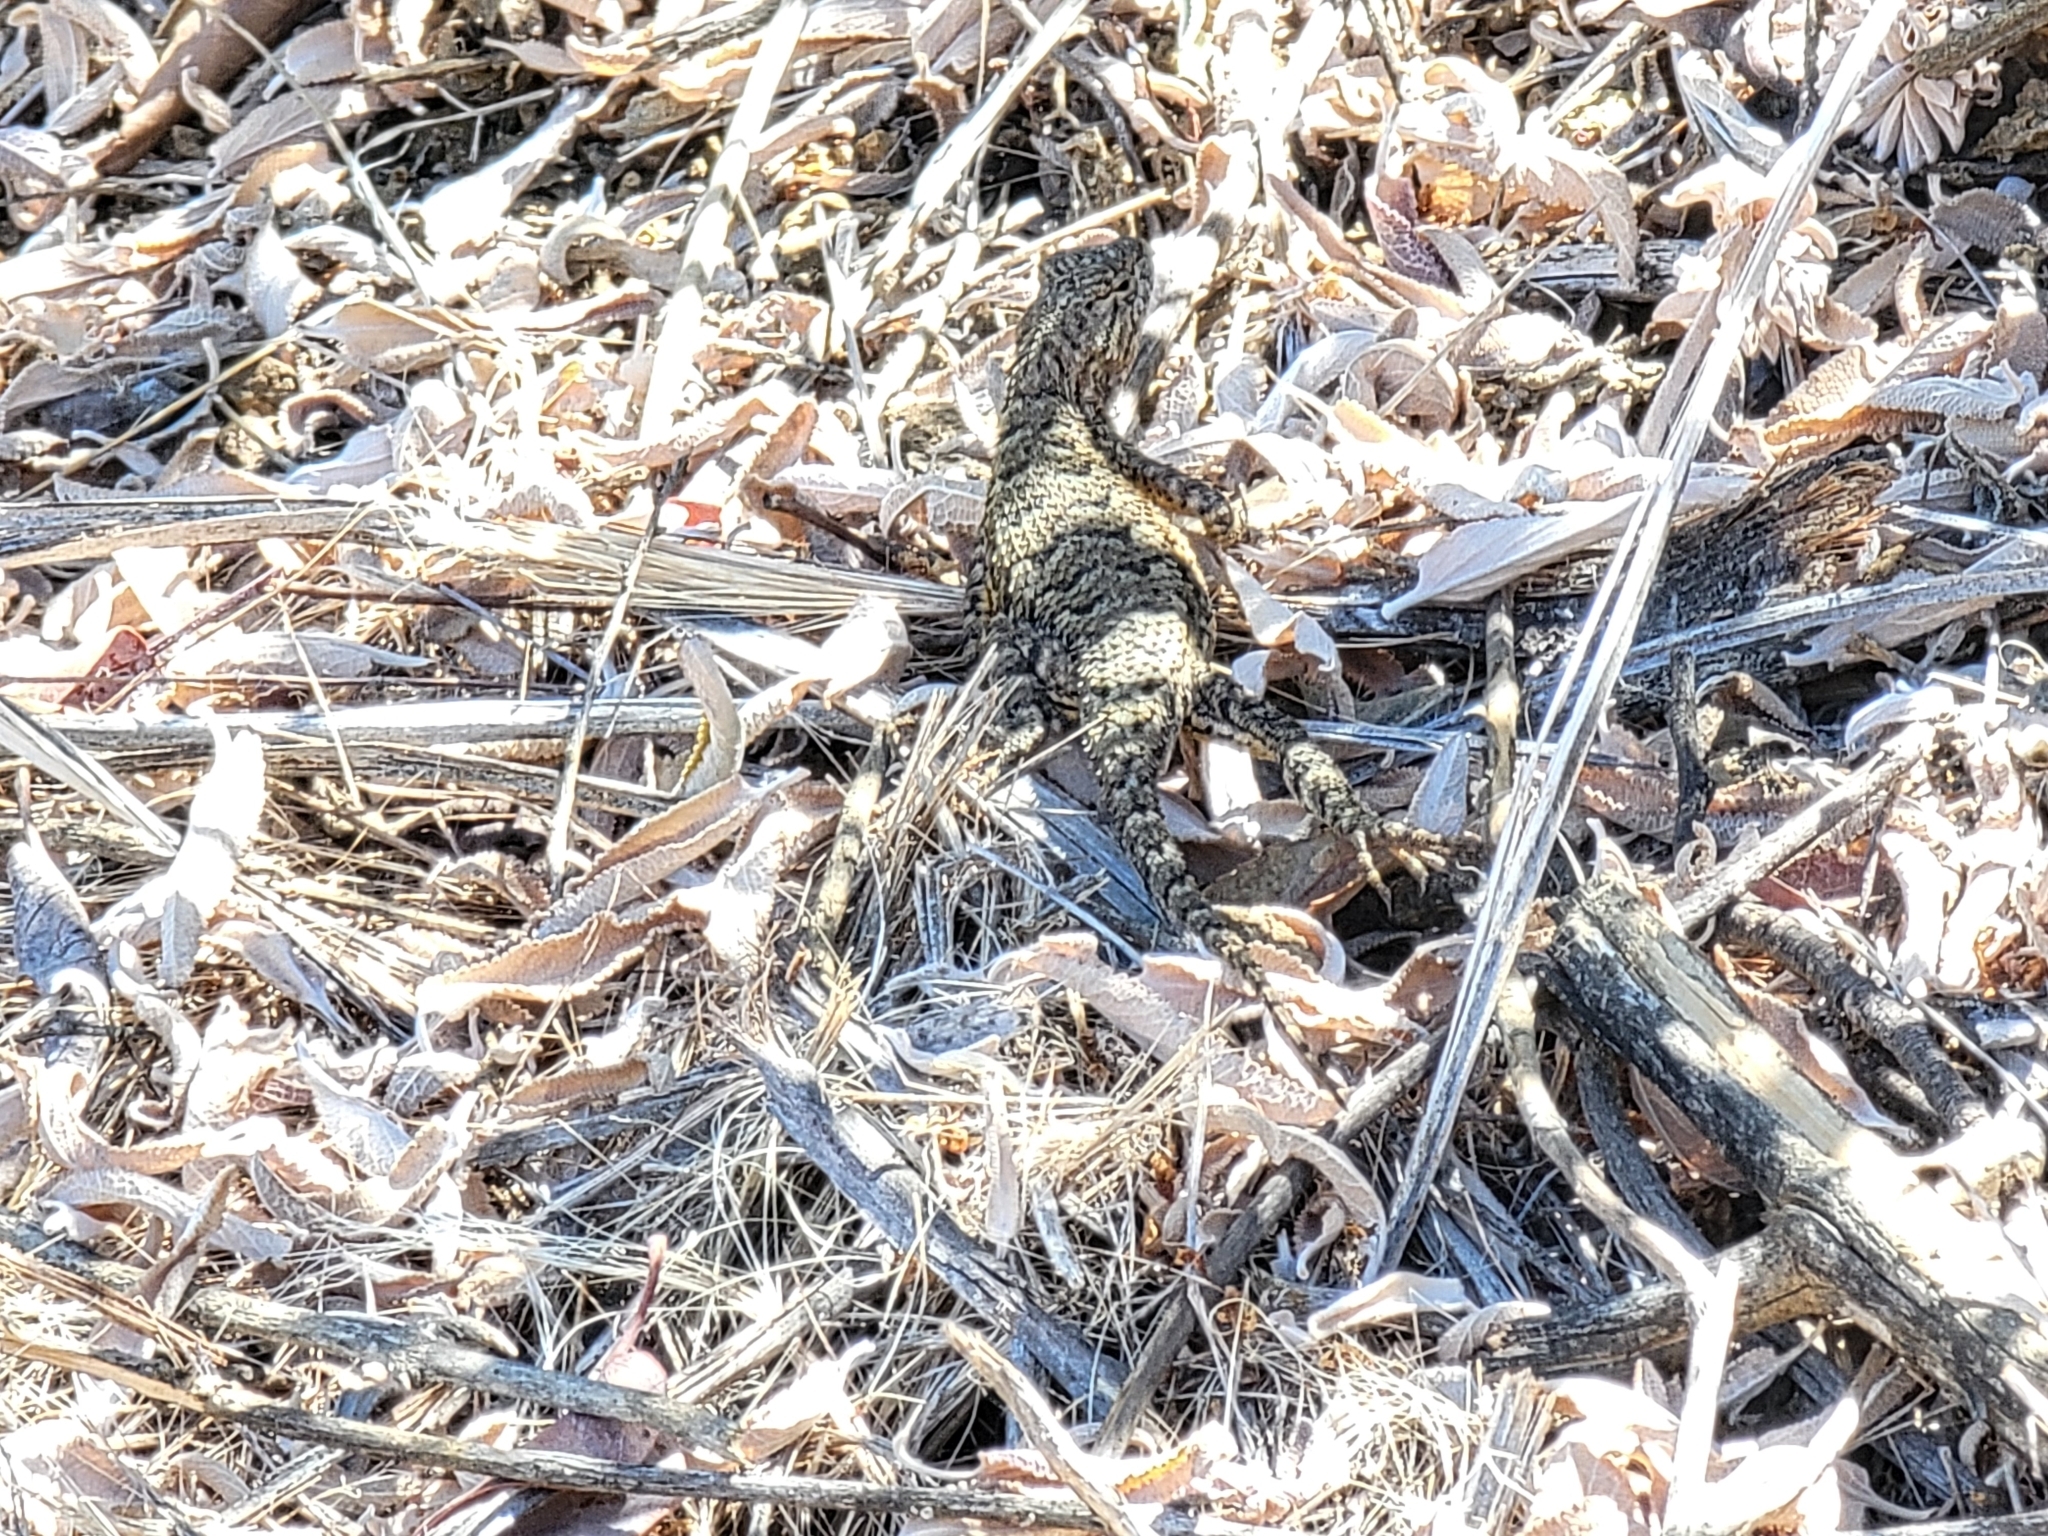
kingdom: Animalia
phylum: Chordata
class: Squamata
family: Phrynosomatidae
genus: Sceloporus
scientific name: Sceloporus occidentalis
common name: Western fence lizard
